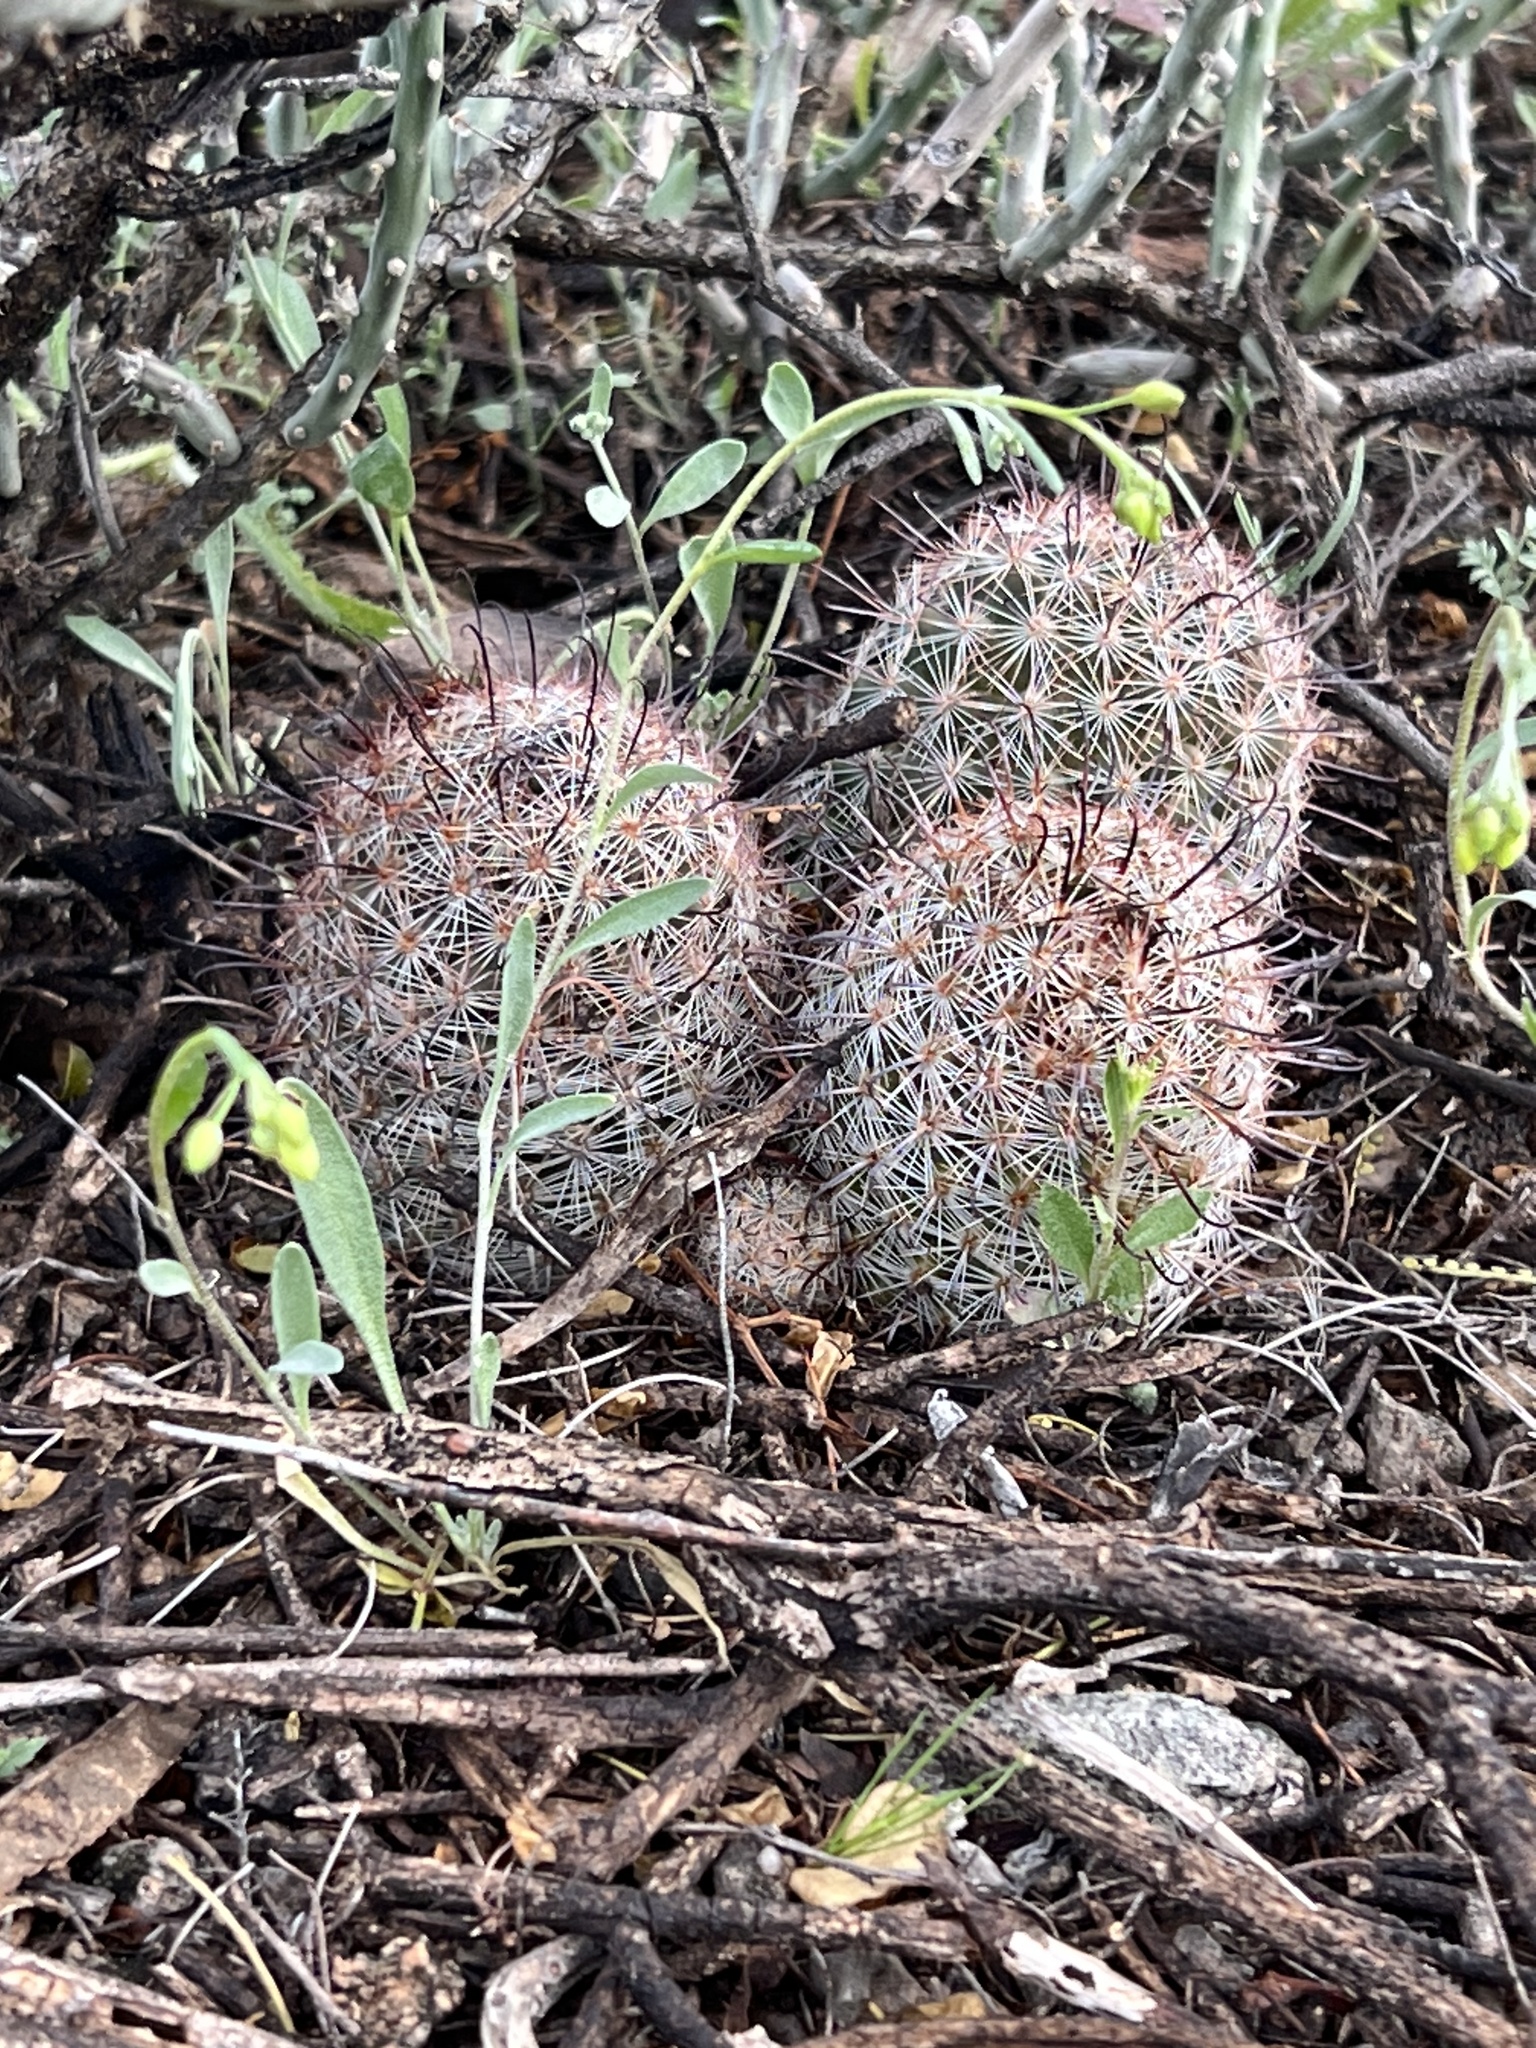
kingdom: Plantae
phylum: Tracheophyta
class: Magnoliopsida
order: Caryophyllales
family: Cactaceae
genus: Cochemiea
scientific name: Cochemiea grahamii
